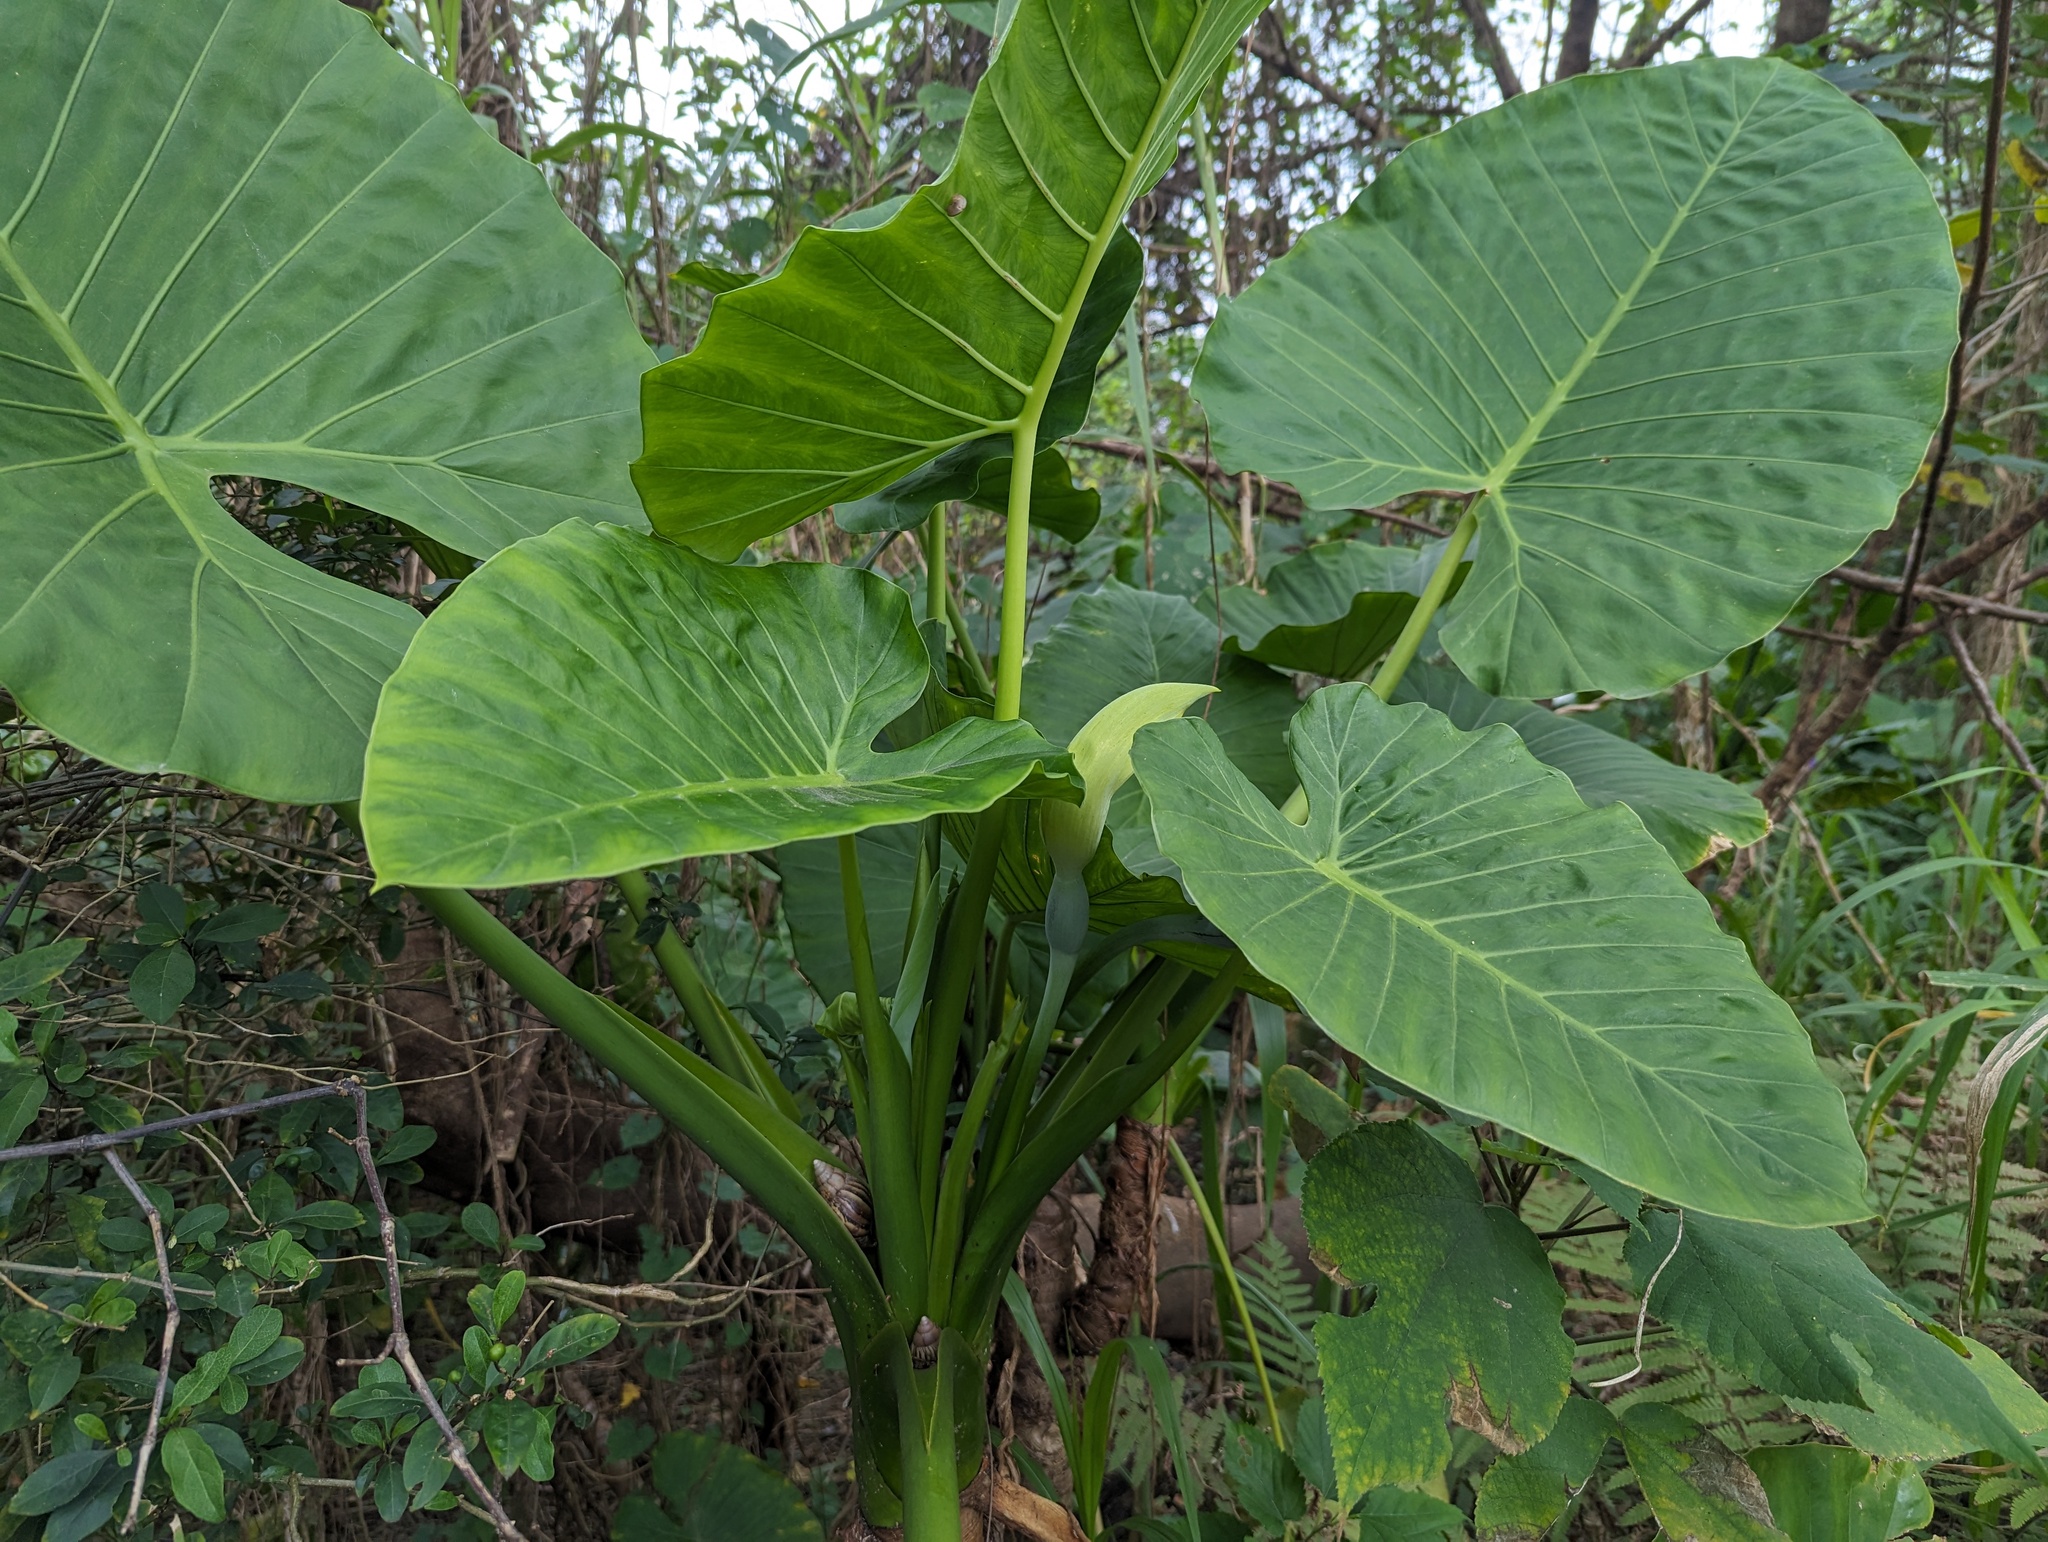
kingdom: Plantae
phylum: Tracheophyta
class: Liliopsida
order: Alismatales
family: Araceae
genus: Alocasia
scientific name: Alocasia odora
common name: Asian taro
